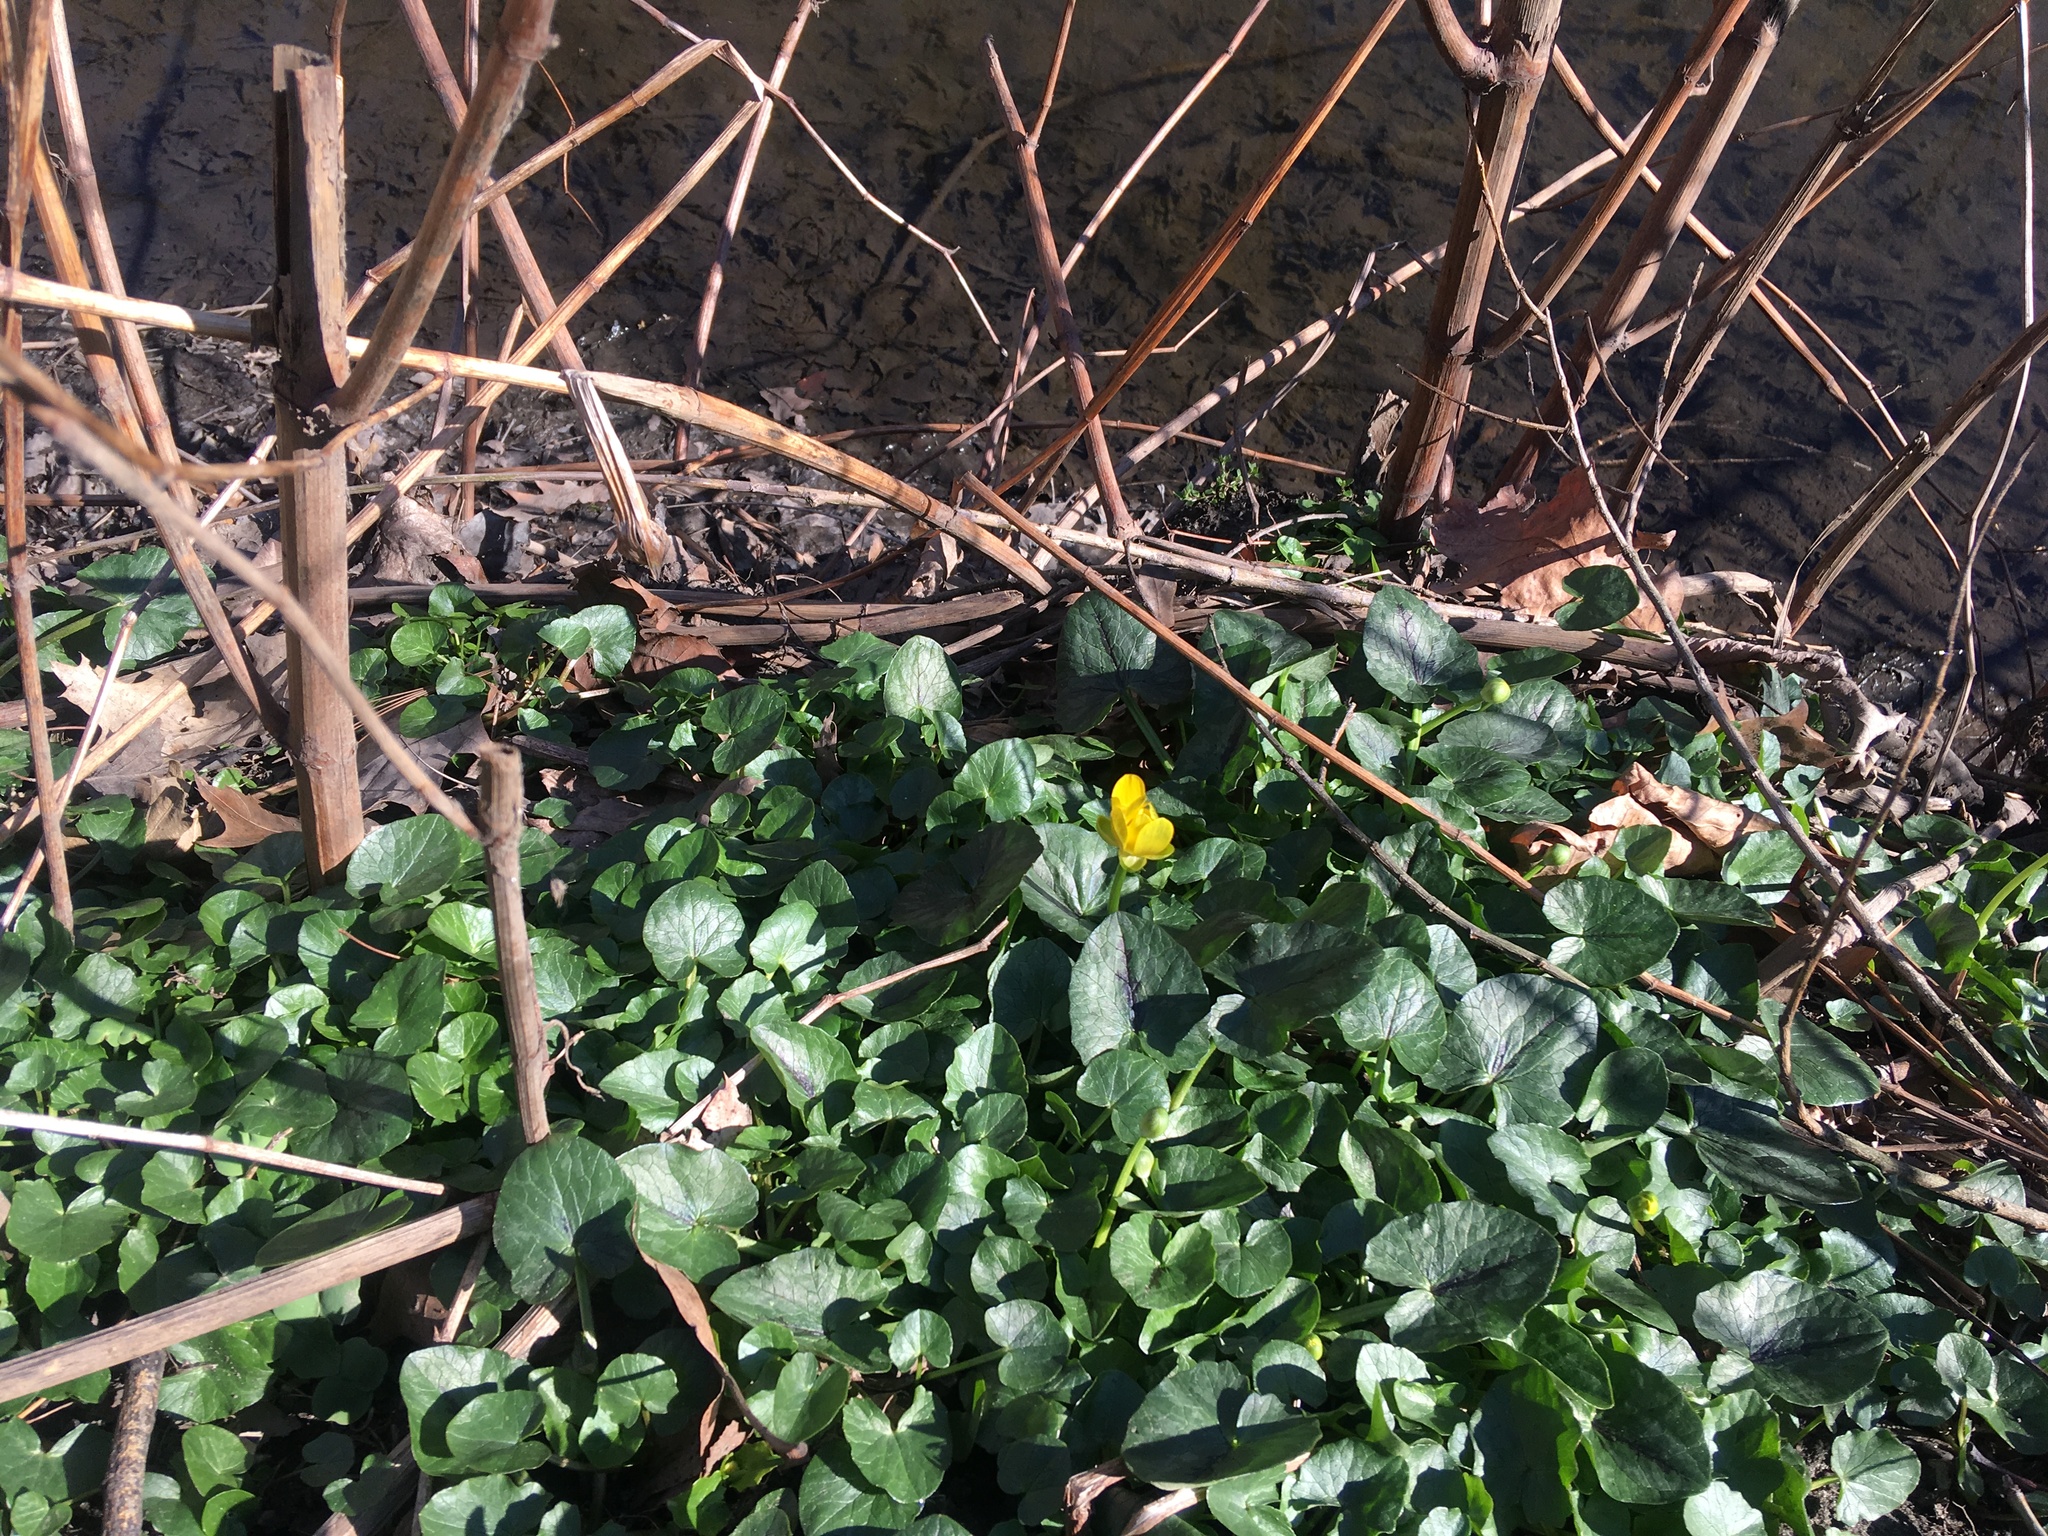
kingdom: Plantae
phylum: Tracheophyta
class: Magnoliopsida
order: Ranunculales
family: Ranunculaceae
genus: Ficaria
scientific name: Ficaria verna
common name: Lesser celandine
